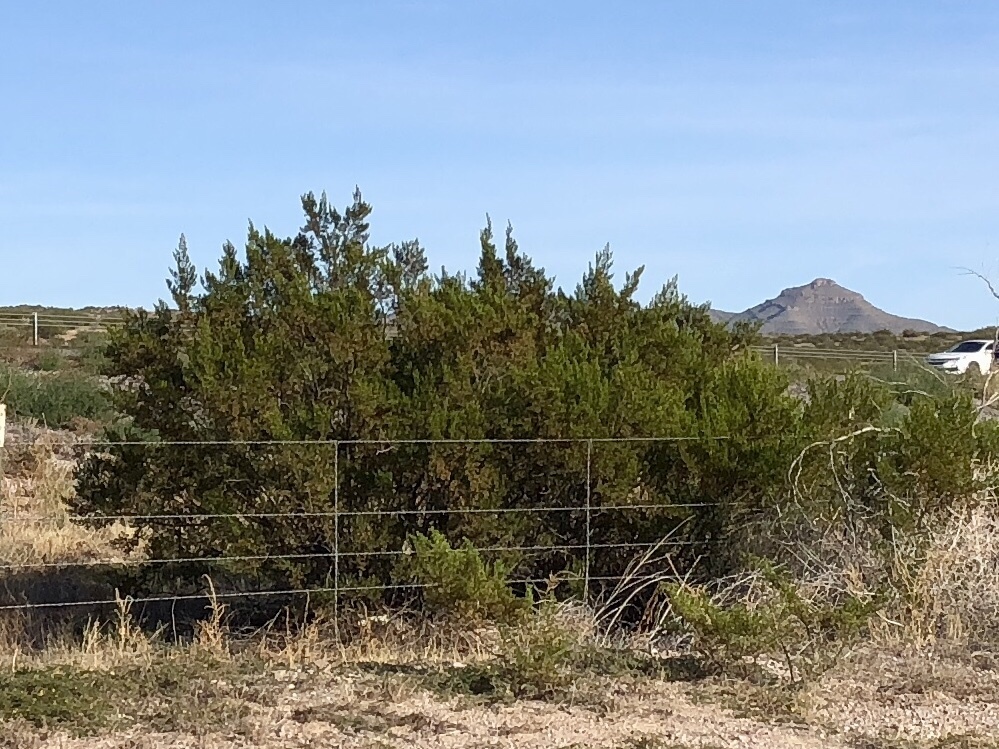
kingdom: Plantae
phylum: Tracheophyta
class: Magnoliopsida
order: Zygophyllales
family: Zygophyllaceae
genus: Larrea
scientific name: Larrea tridentata
